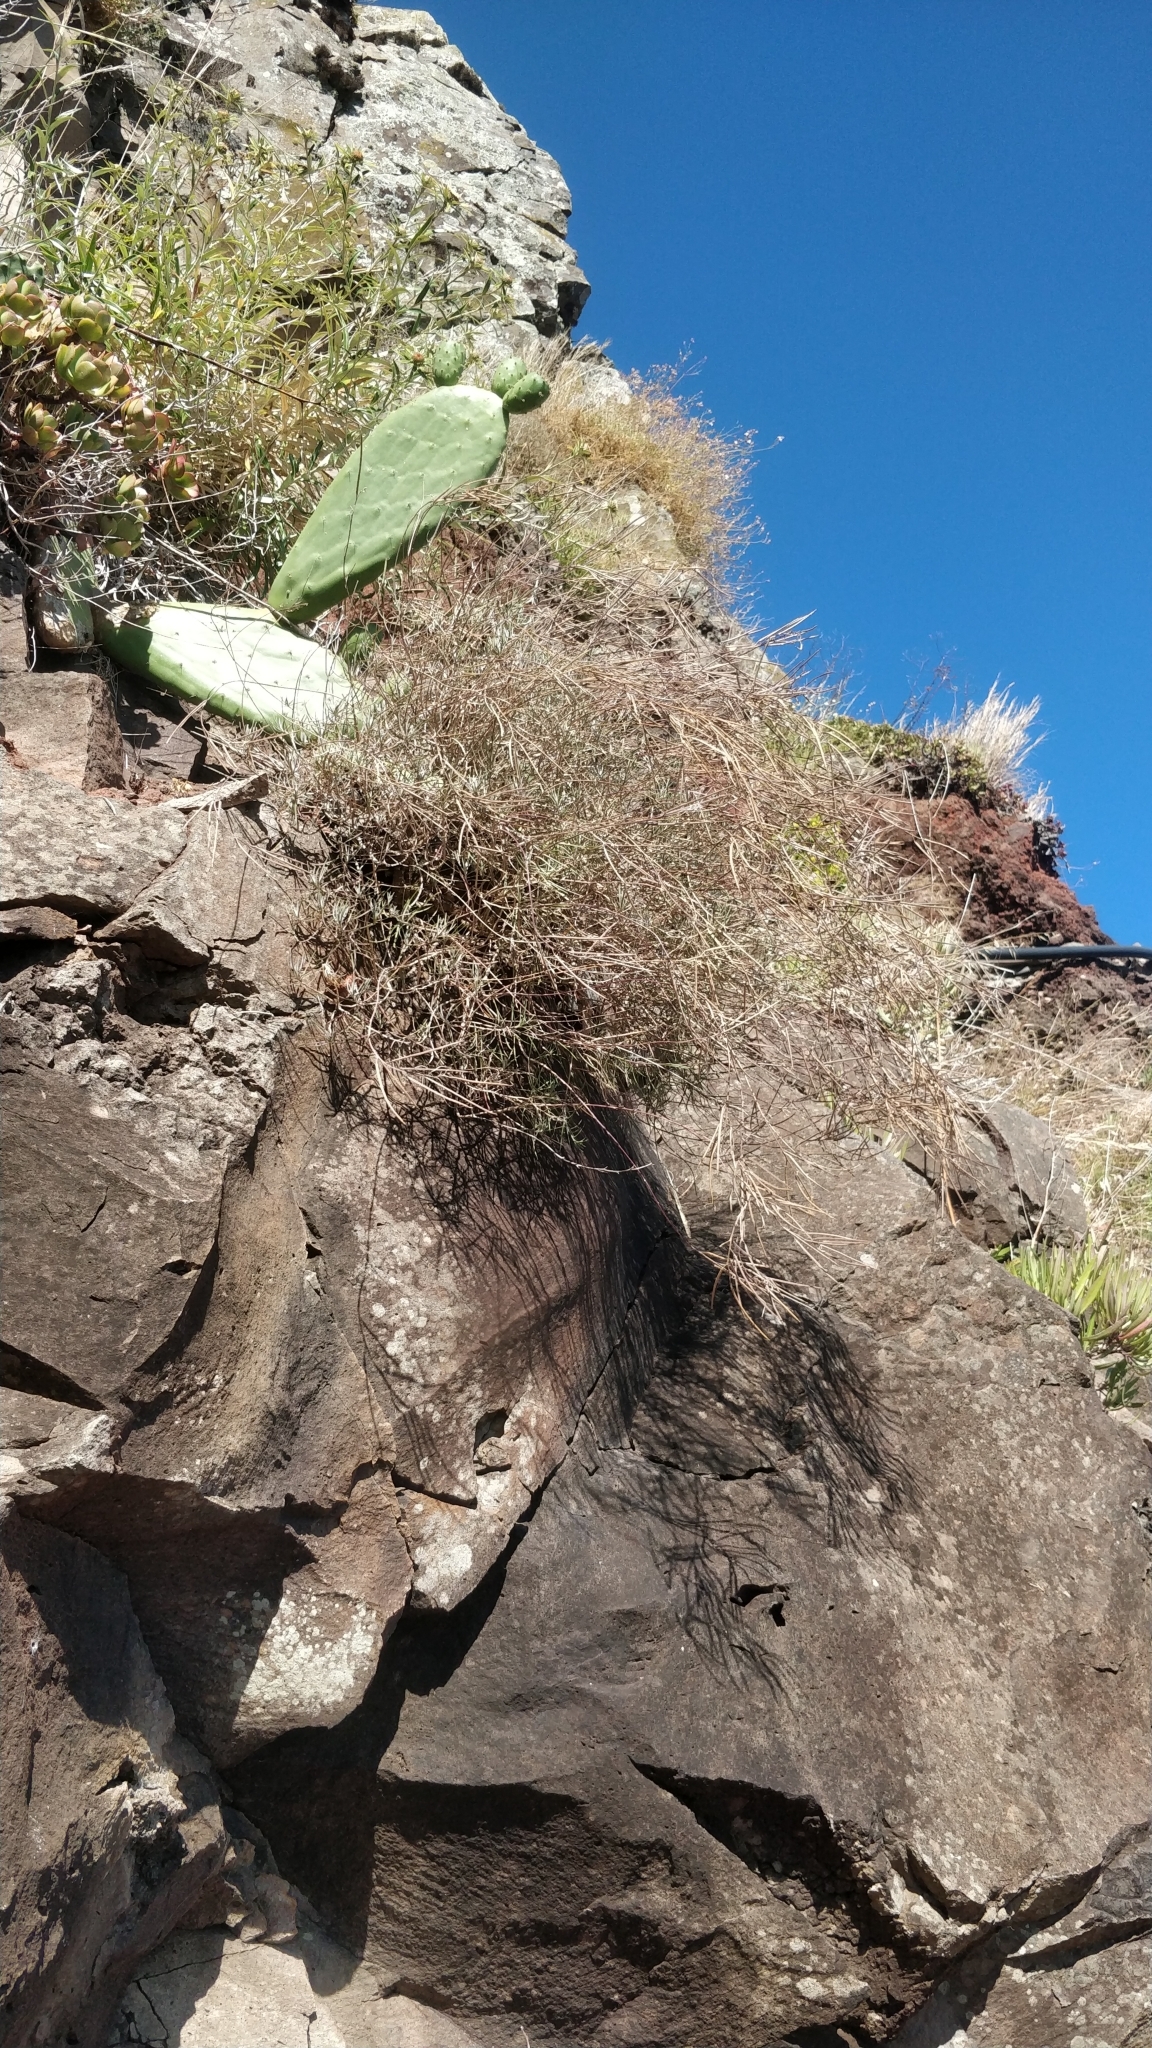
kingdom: Plantae
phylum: Tracheophyta
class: Magnoliopsida
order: Brassicales
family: Brassicaceae
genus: Erysimum
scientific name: Erysimum maderense
